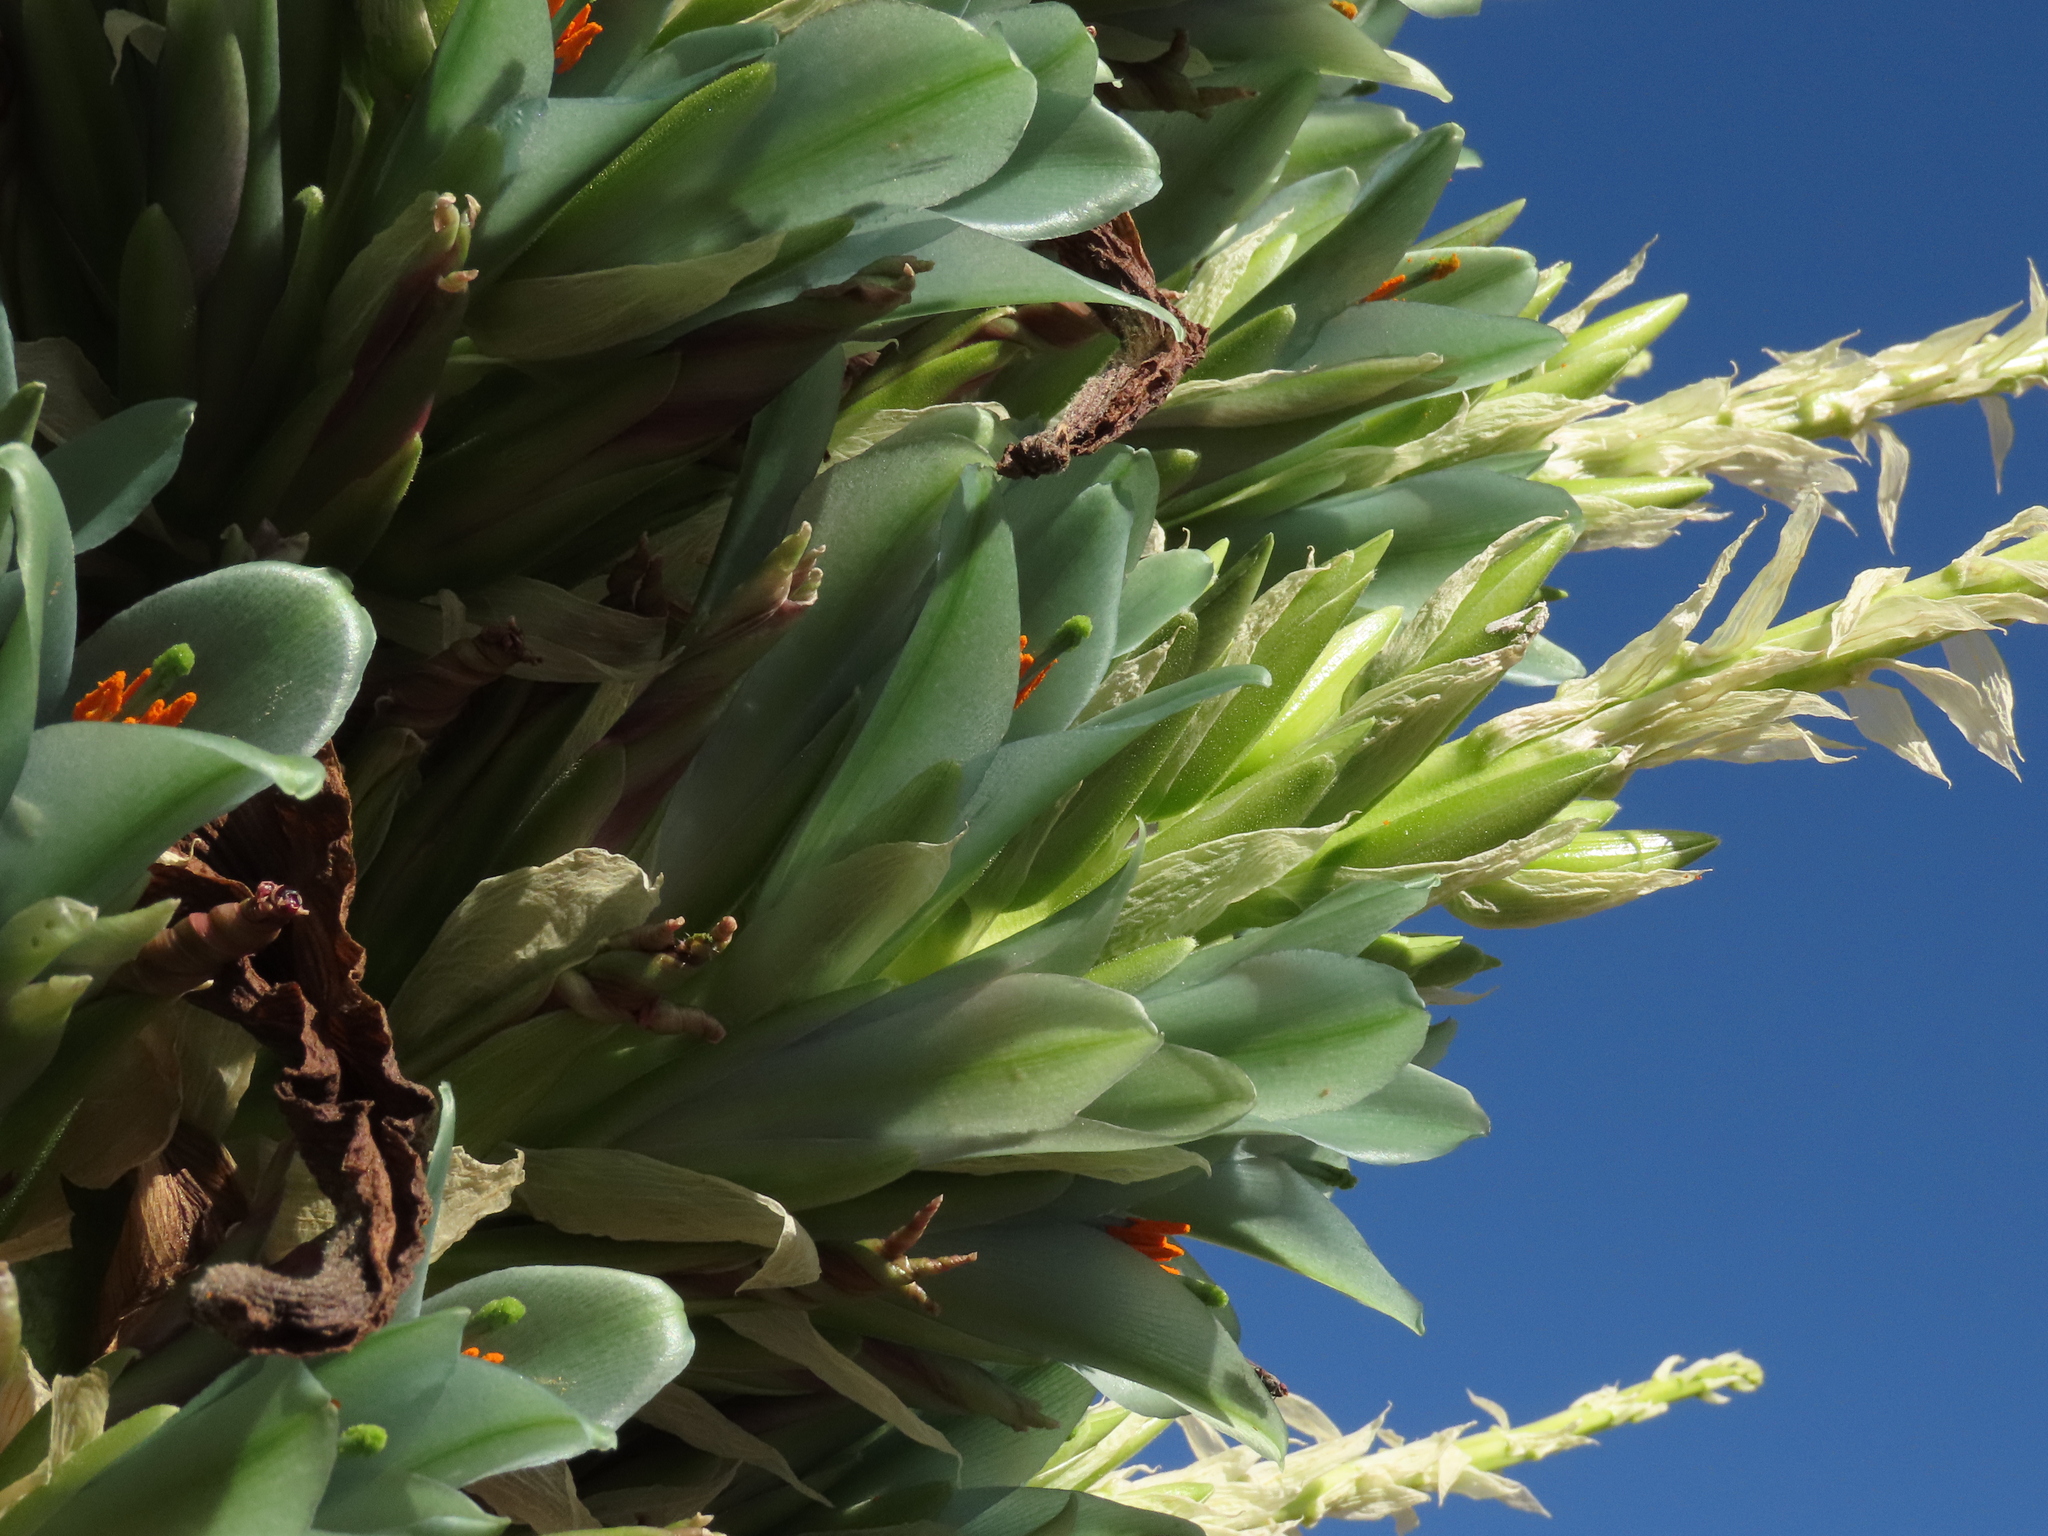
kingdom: Plantae
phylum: Tracheophyta
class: Liliopsida
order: Poales
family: Bromeliaceae
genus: Puya
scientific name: Puya alpestris
